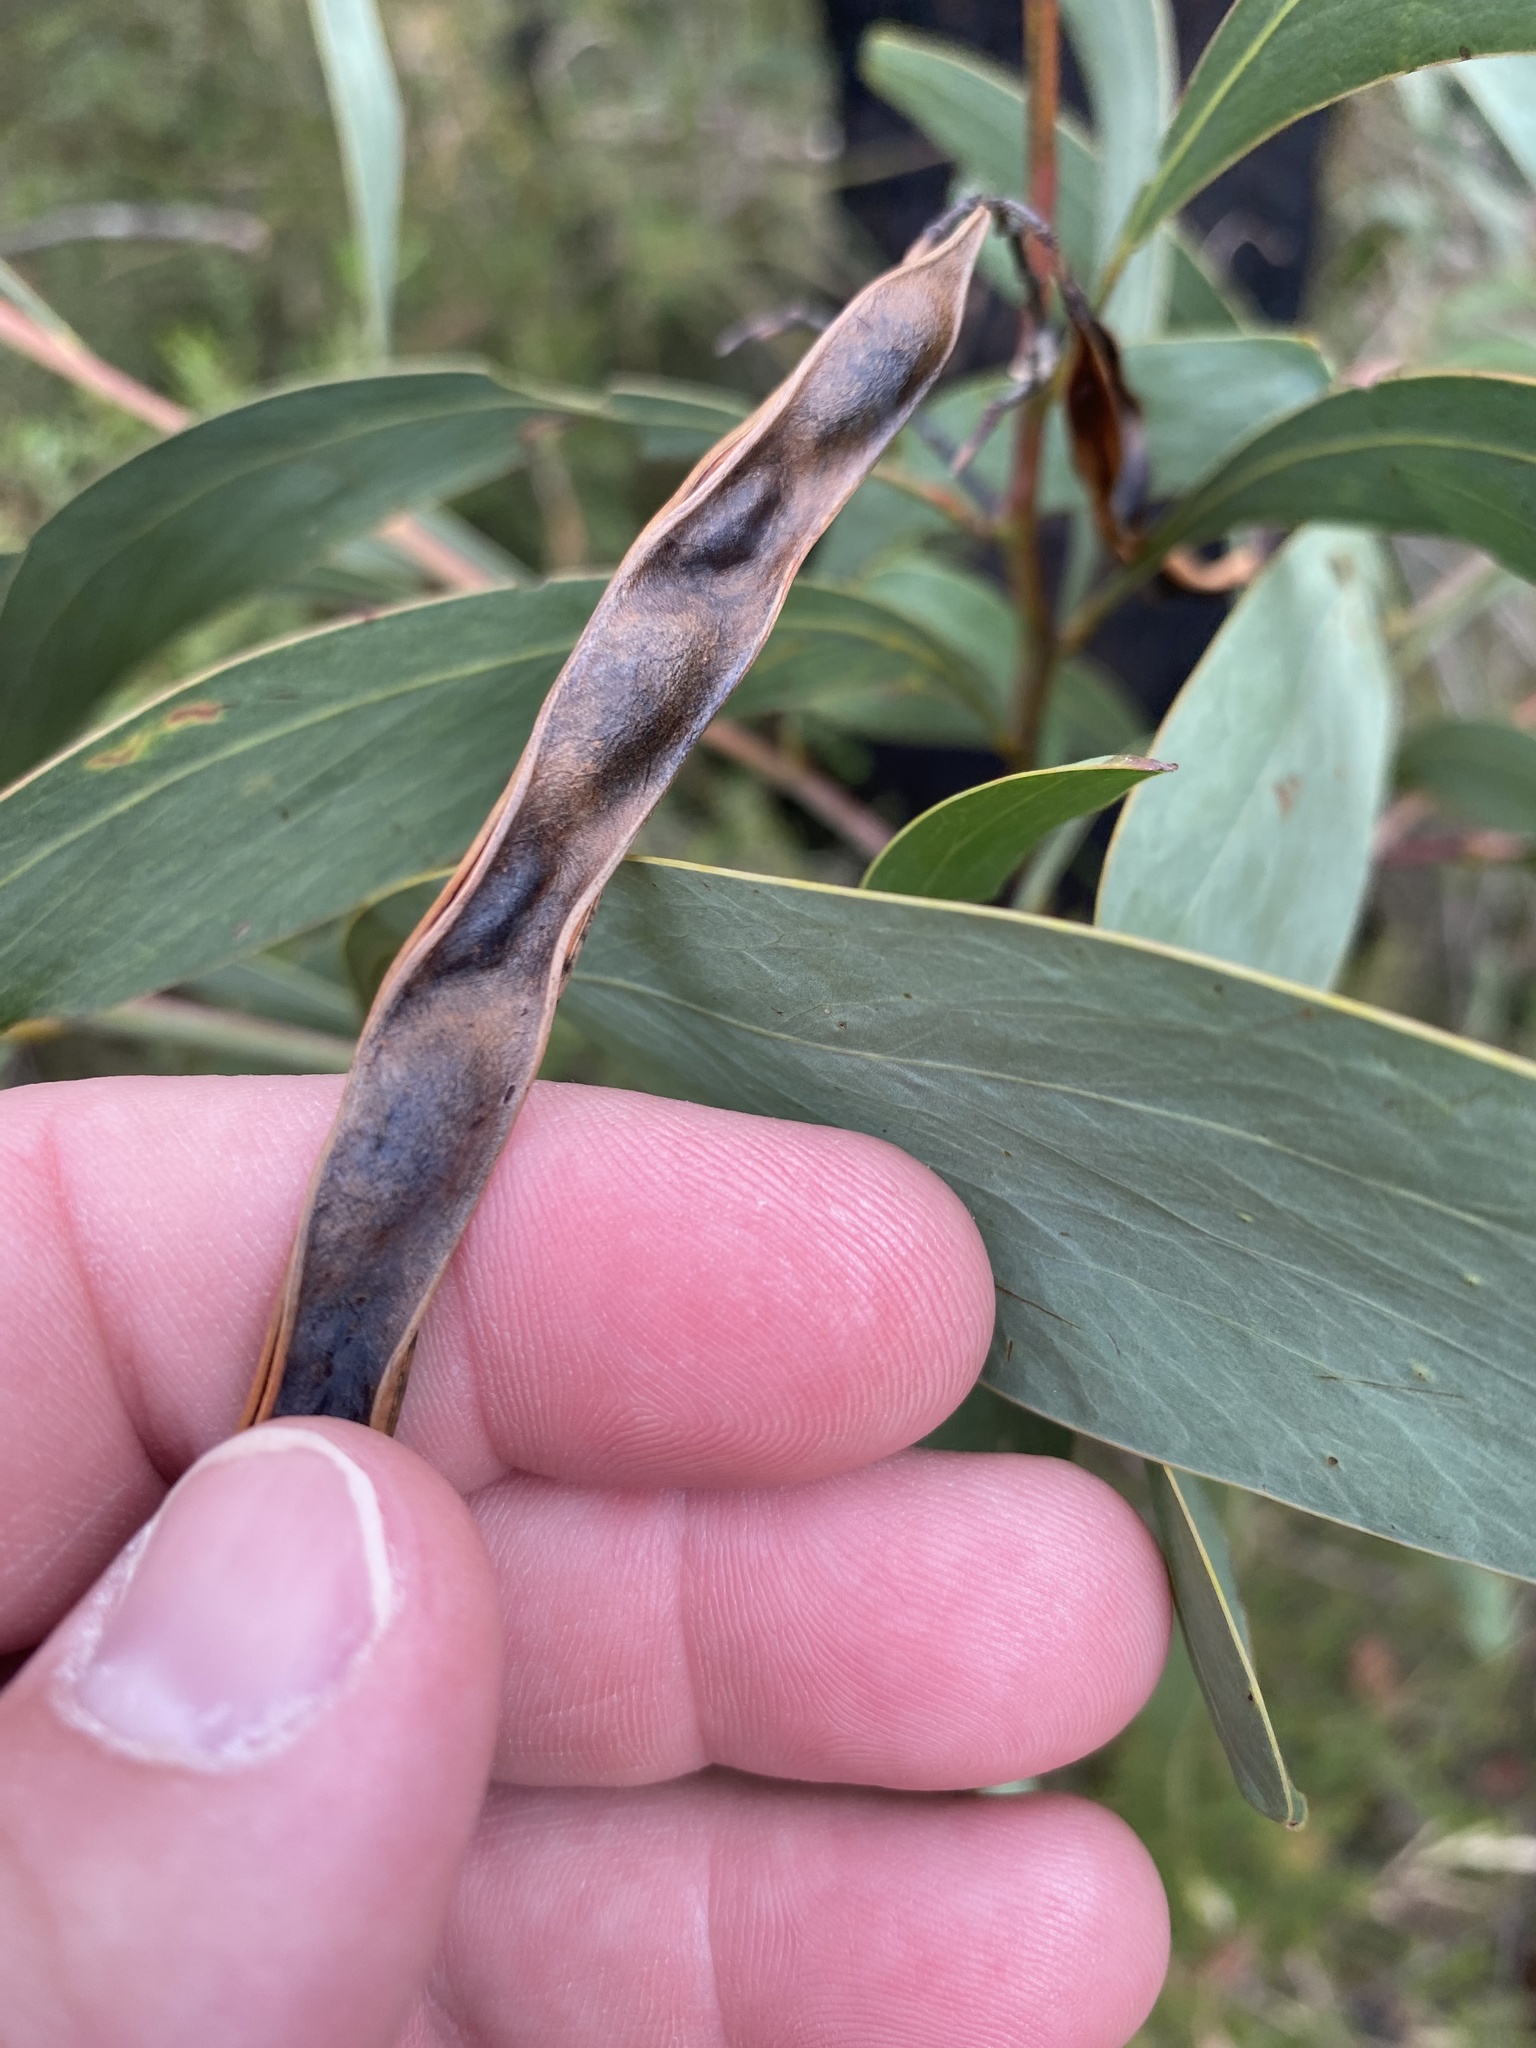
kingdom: Plantae
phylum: Tracheophyta
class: Magnoliopsida
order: Fabales
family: Fabaceae
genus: Acacia
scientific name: Acacia falcata
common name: Burra acacia
